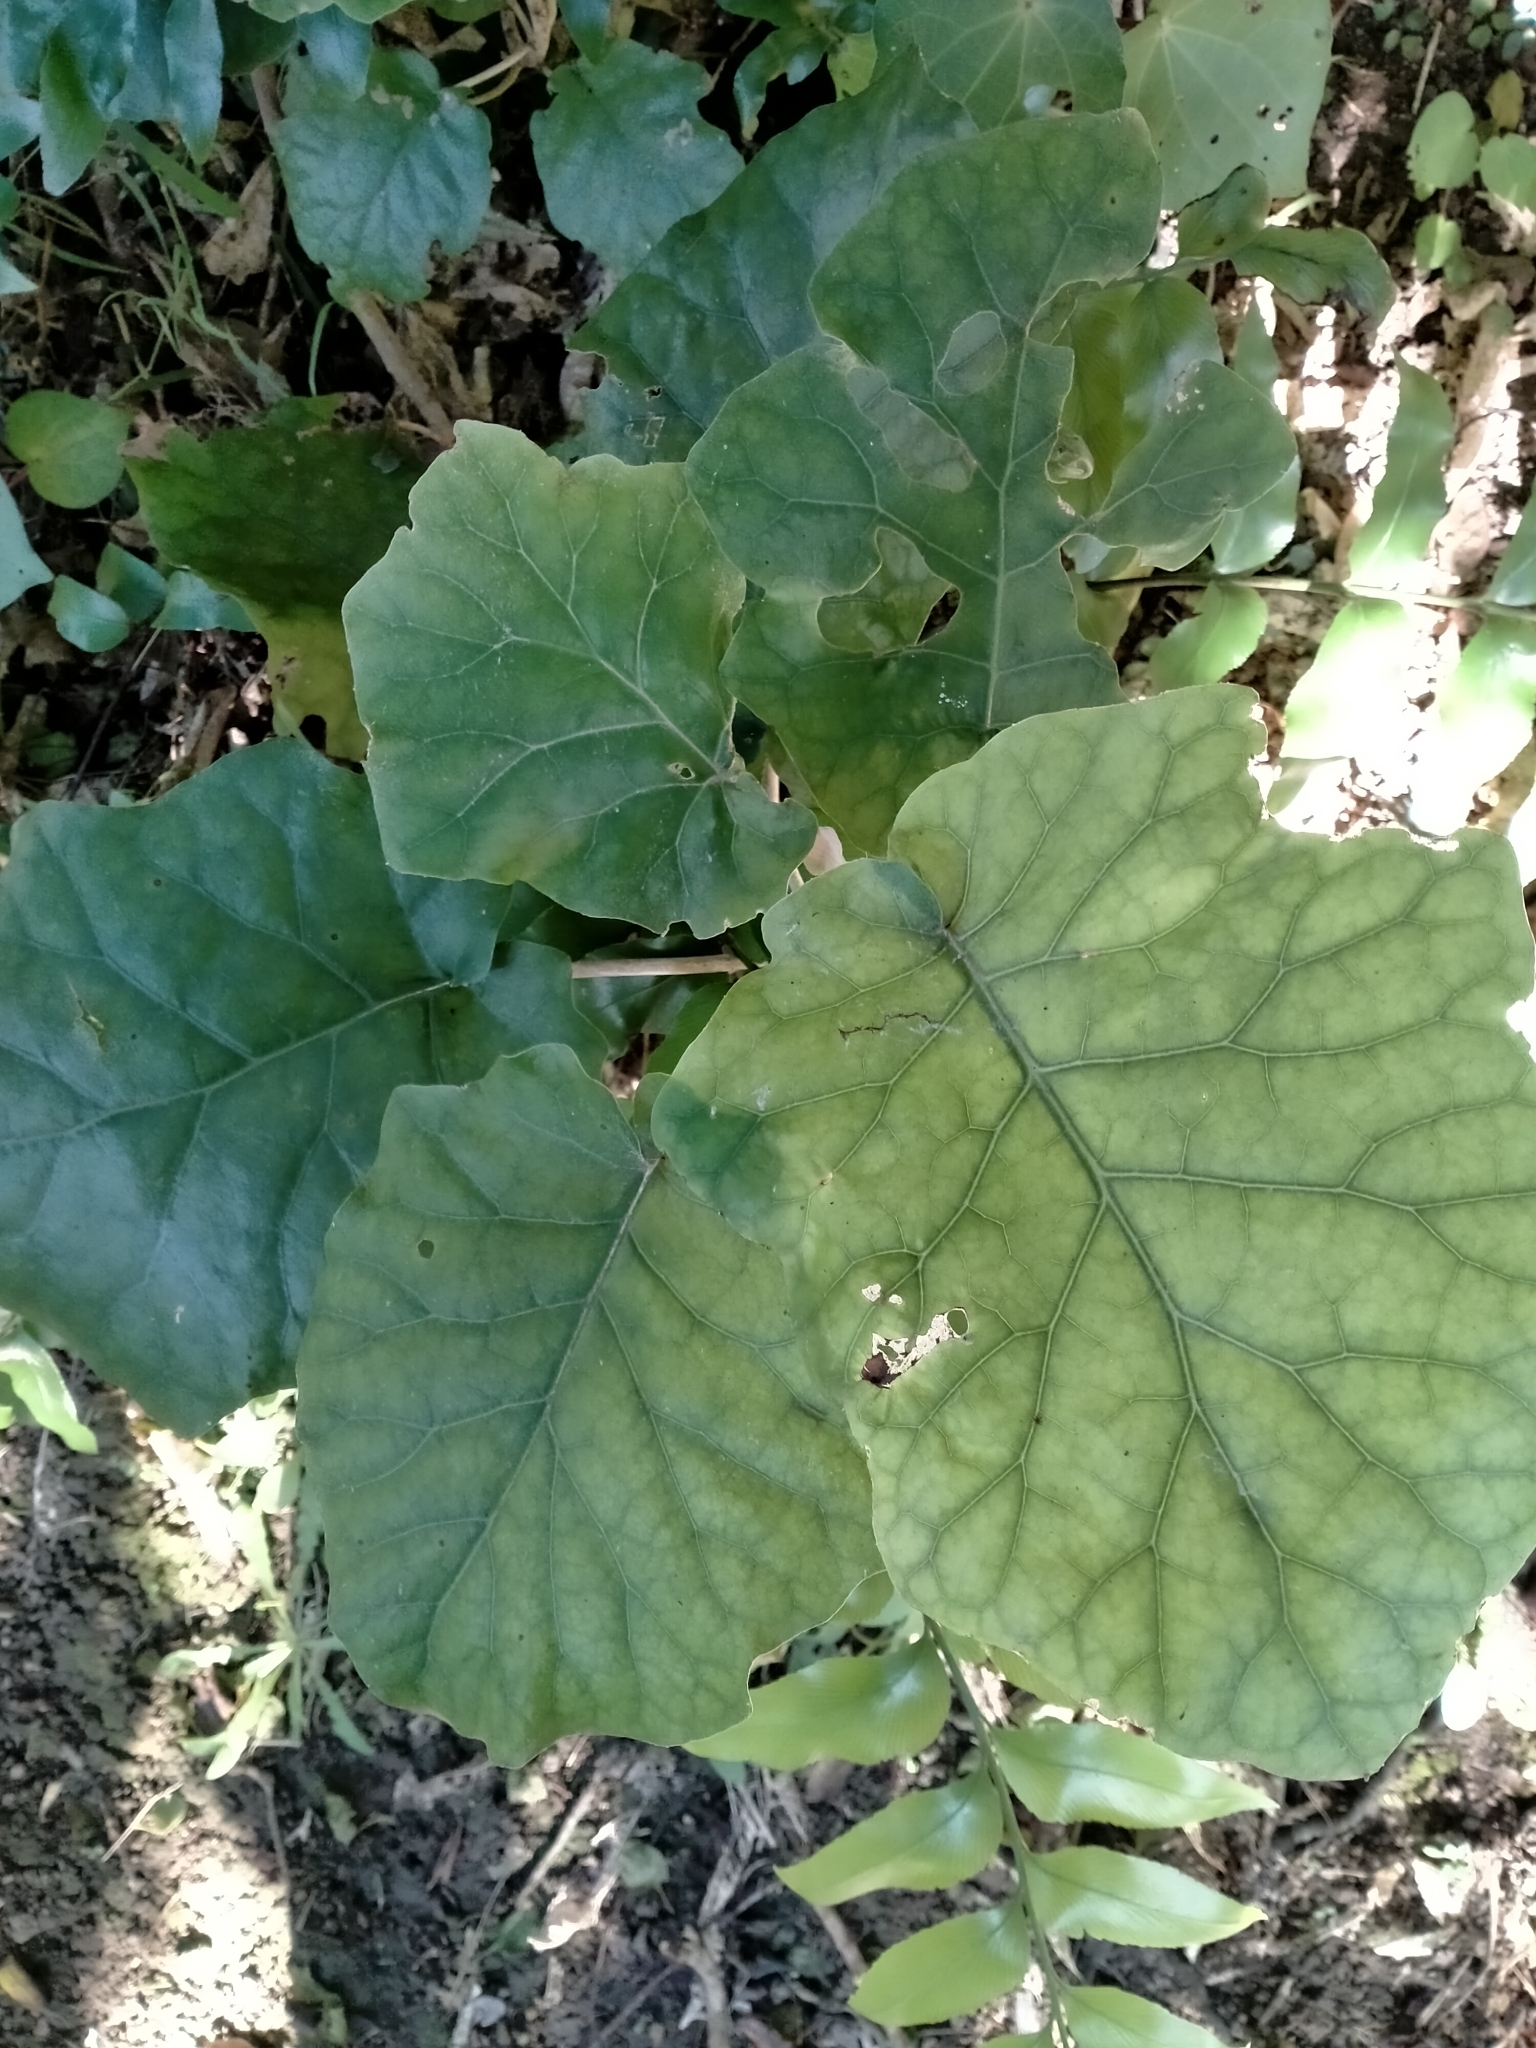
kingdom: Plantae
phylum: Tracheophyta
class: Magnoliopsida
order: Asterales
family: Asteraceae
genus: Brachyglottis
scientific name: Brachyglottis repanda
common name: Hedge ragwort
